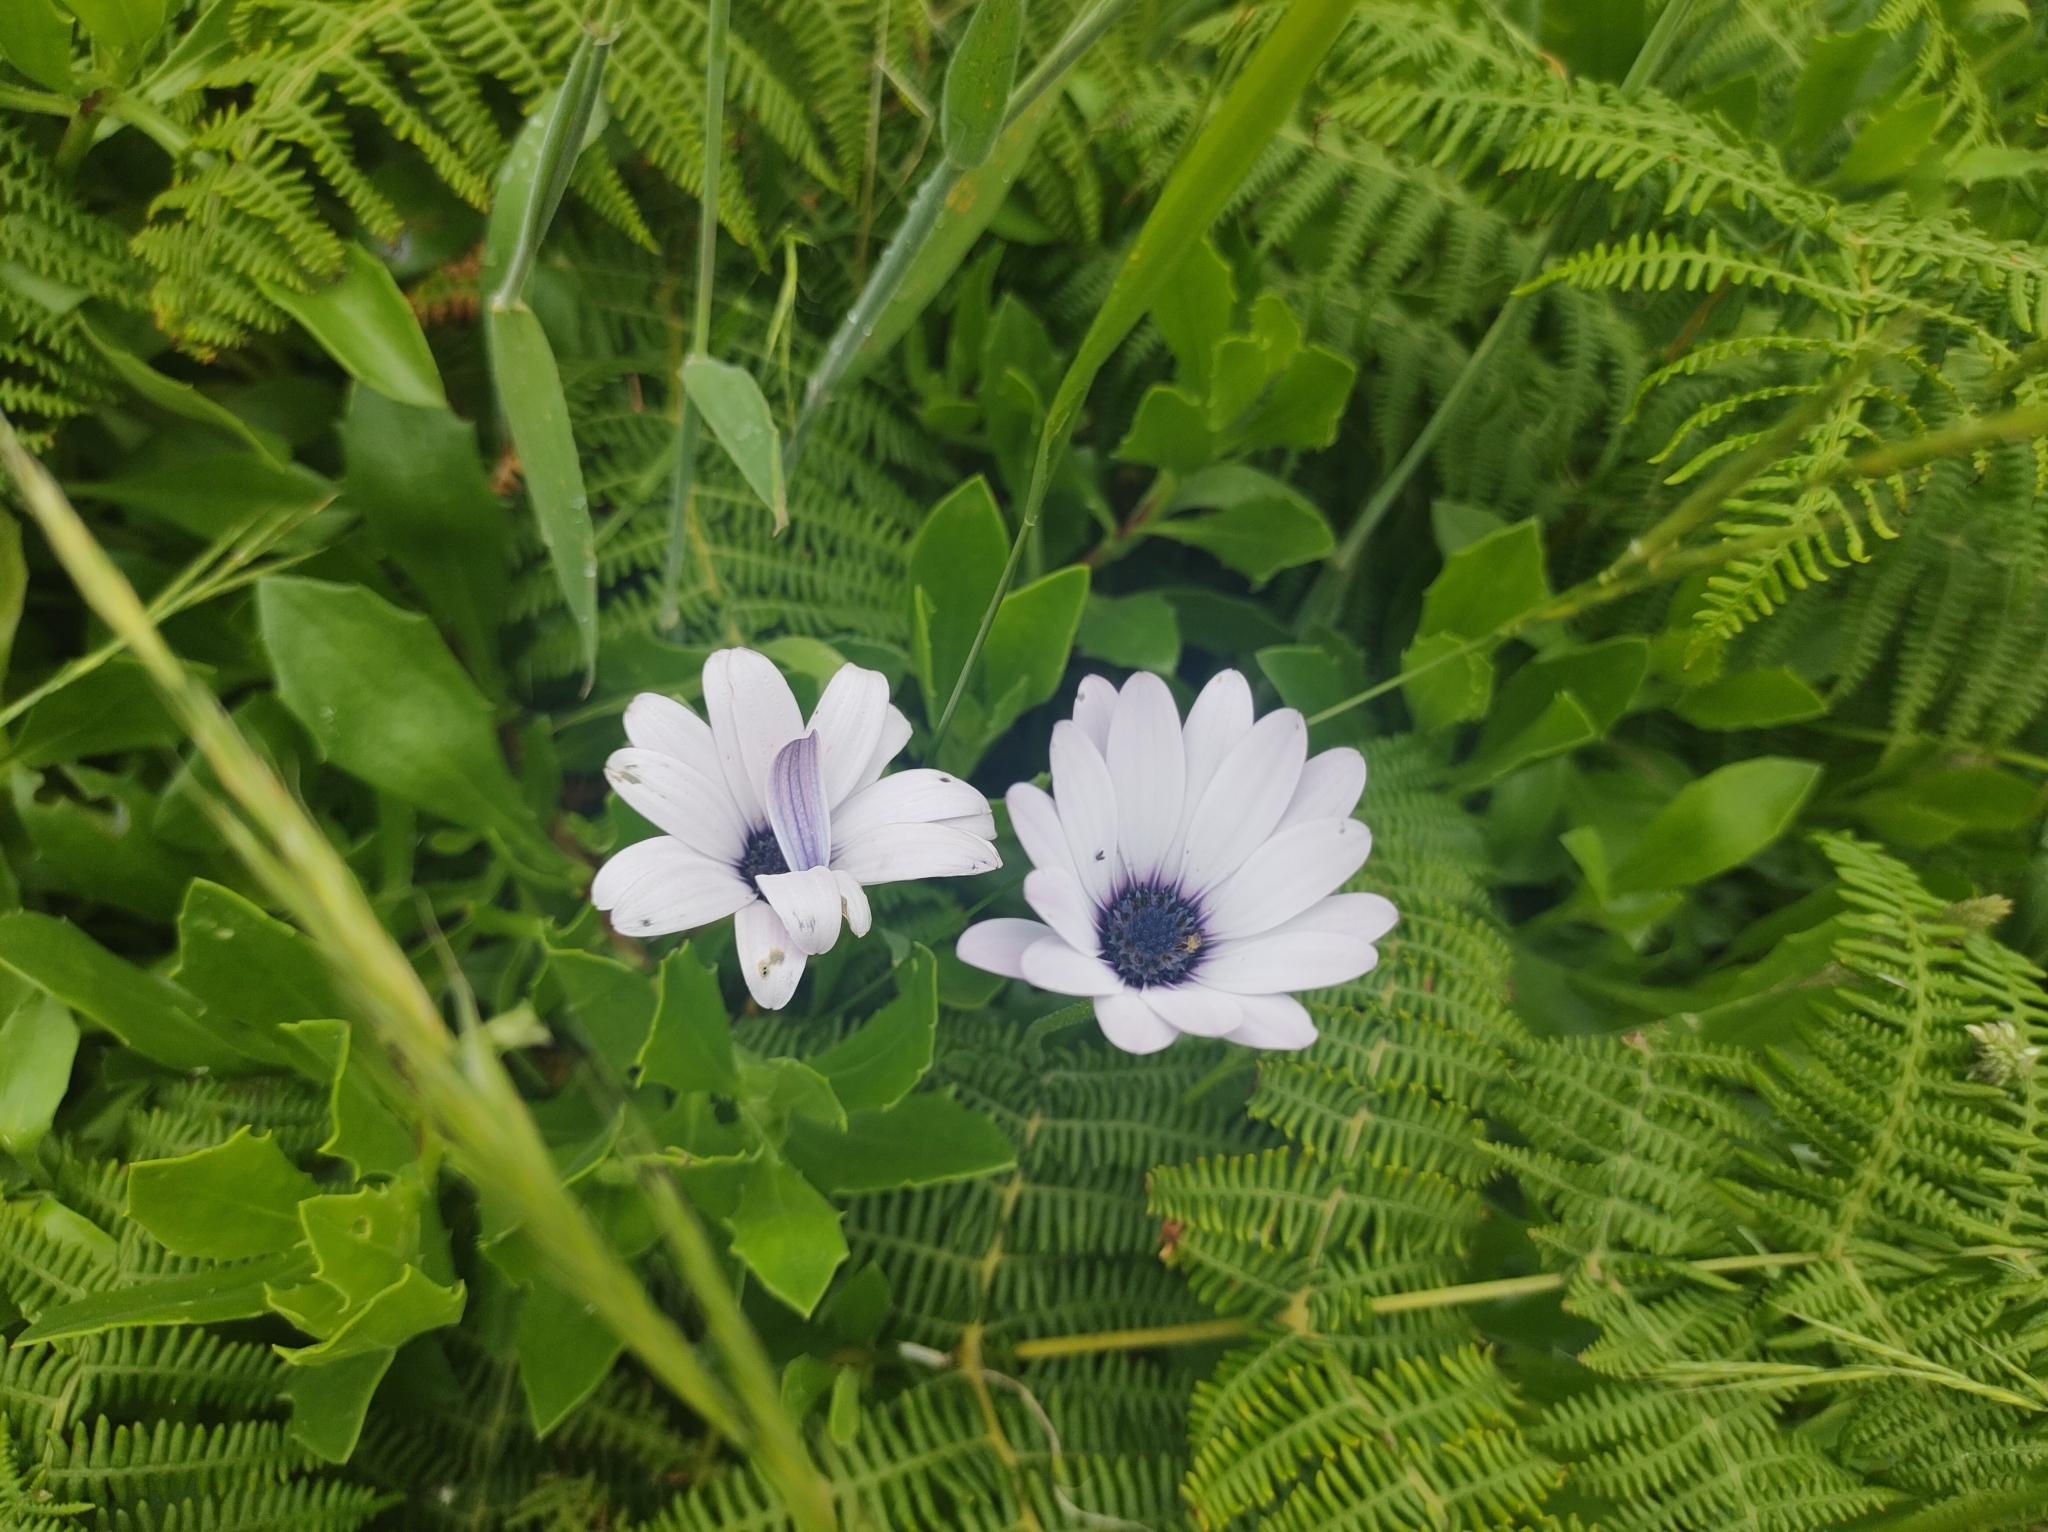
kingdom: Plantae
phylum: Tracheophyta
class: Magnoliopsida
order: Asterales
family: Asteraceae
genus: Dimorphotheca
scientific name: Dimorphotheca ecklonis
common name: Vanstaden's river daisy
